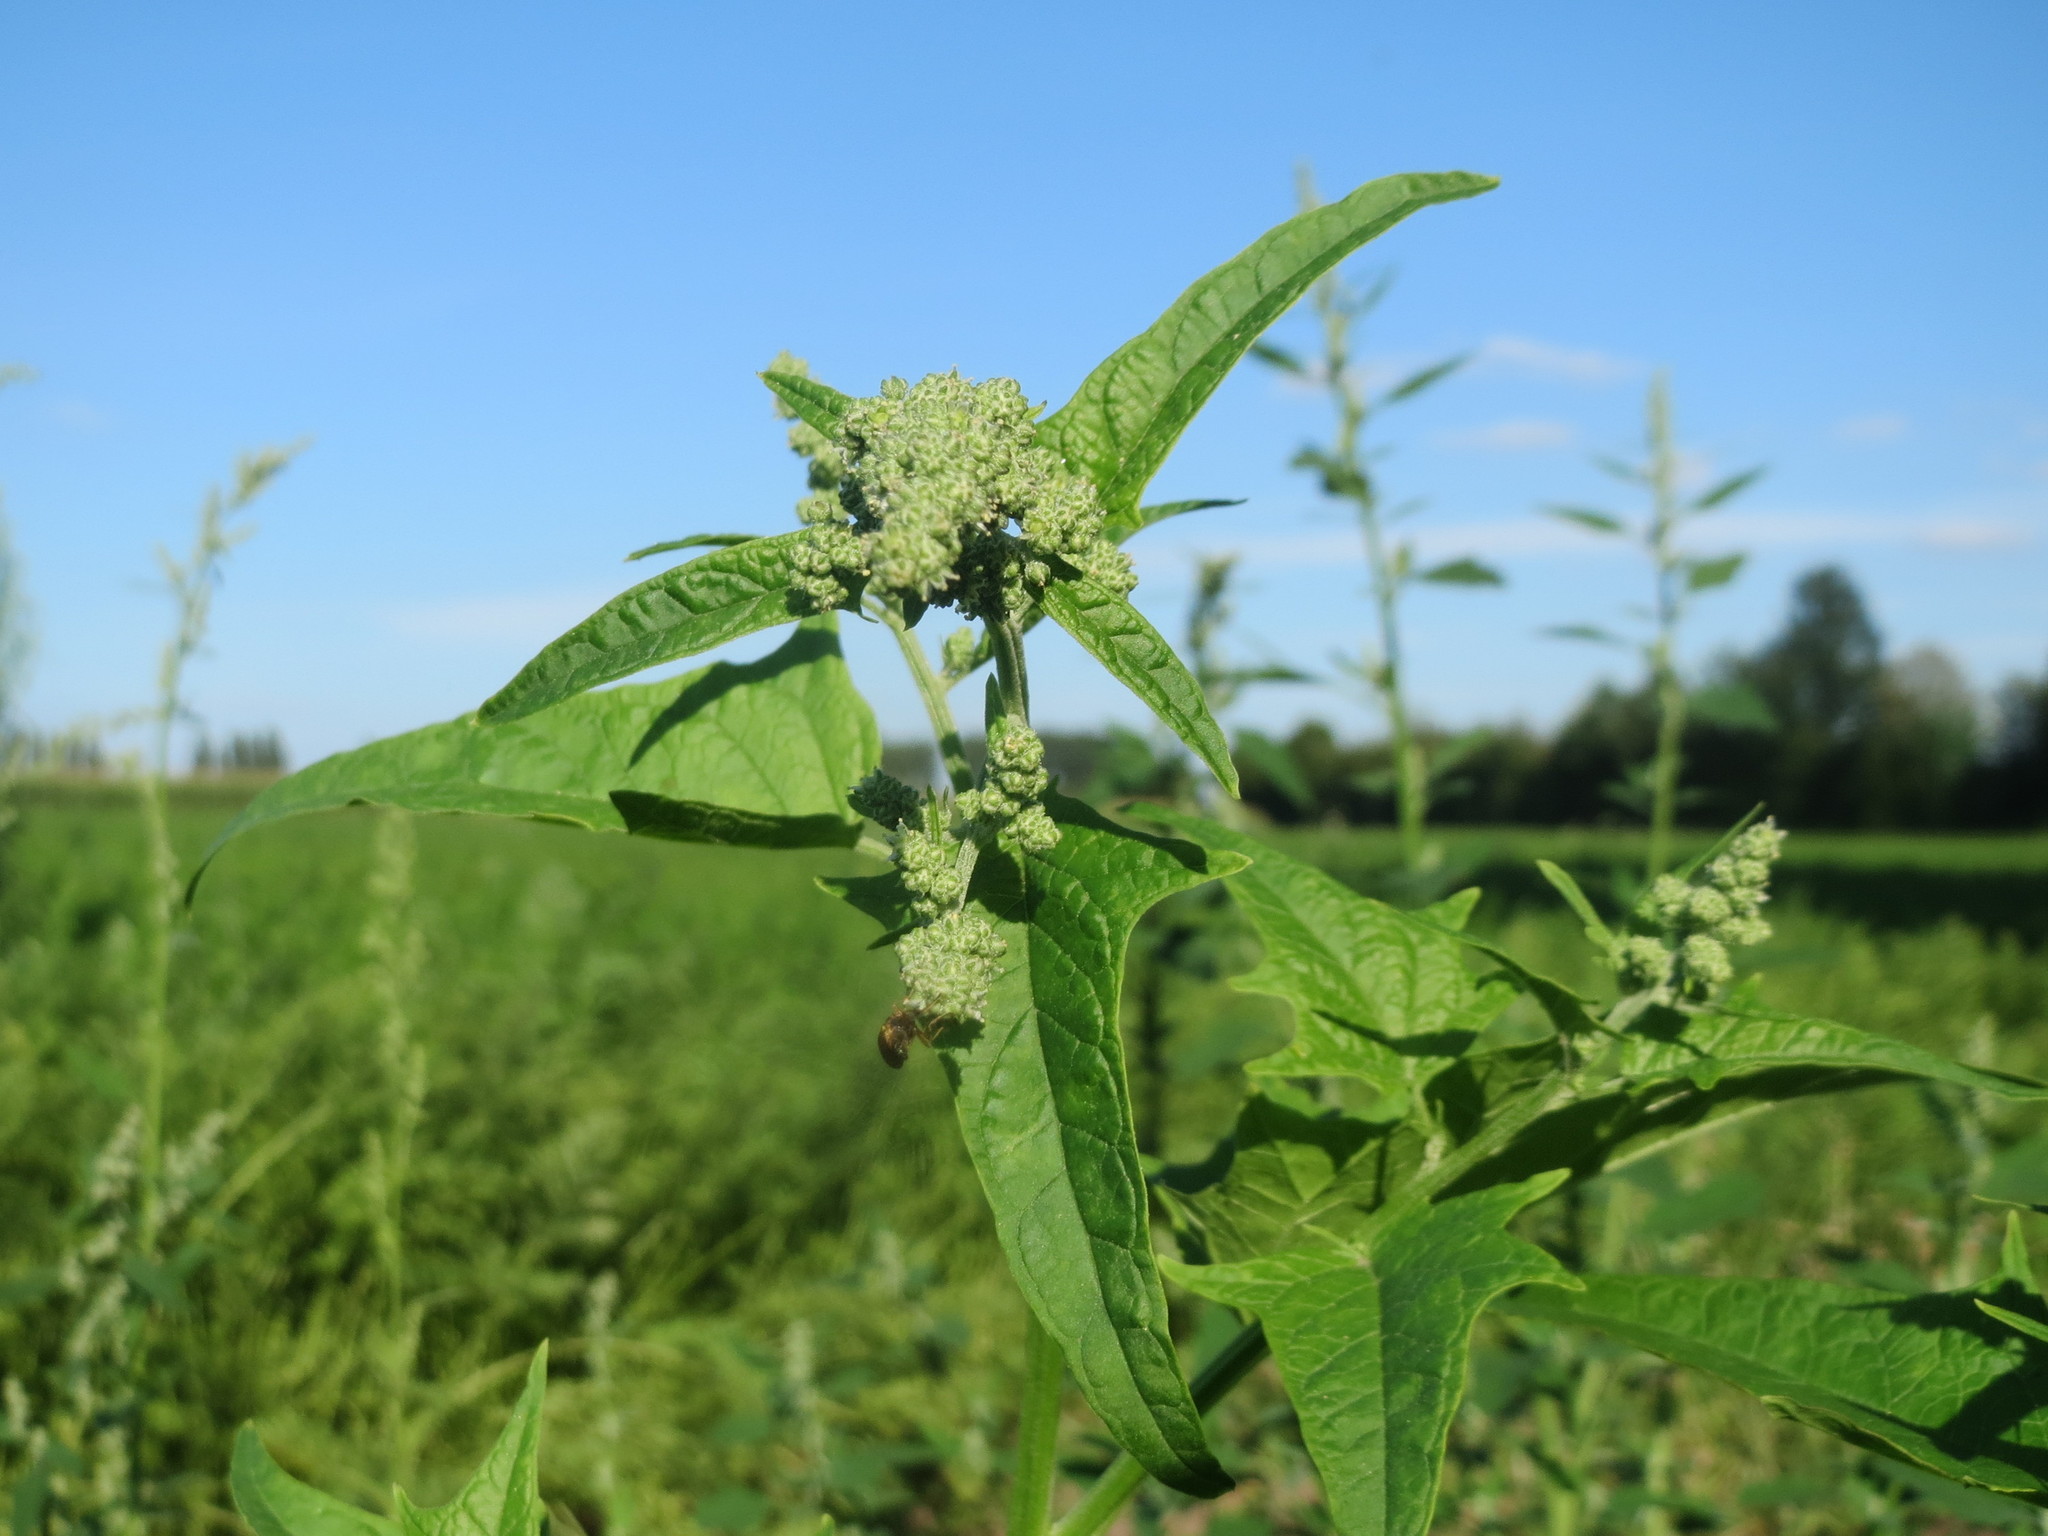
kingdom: Plantae
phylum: Tracheophyta
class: Magnoliopsida
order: Caryophyllales
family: Amaranthaceae
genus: Chenopodiastrum
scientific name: Chenopodiastrum hybridum
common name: Mapleleaf goosefoot
